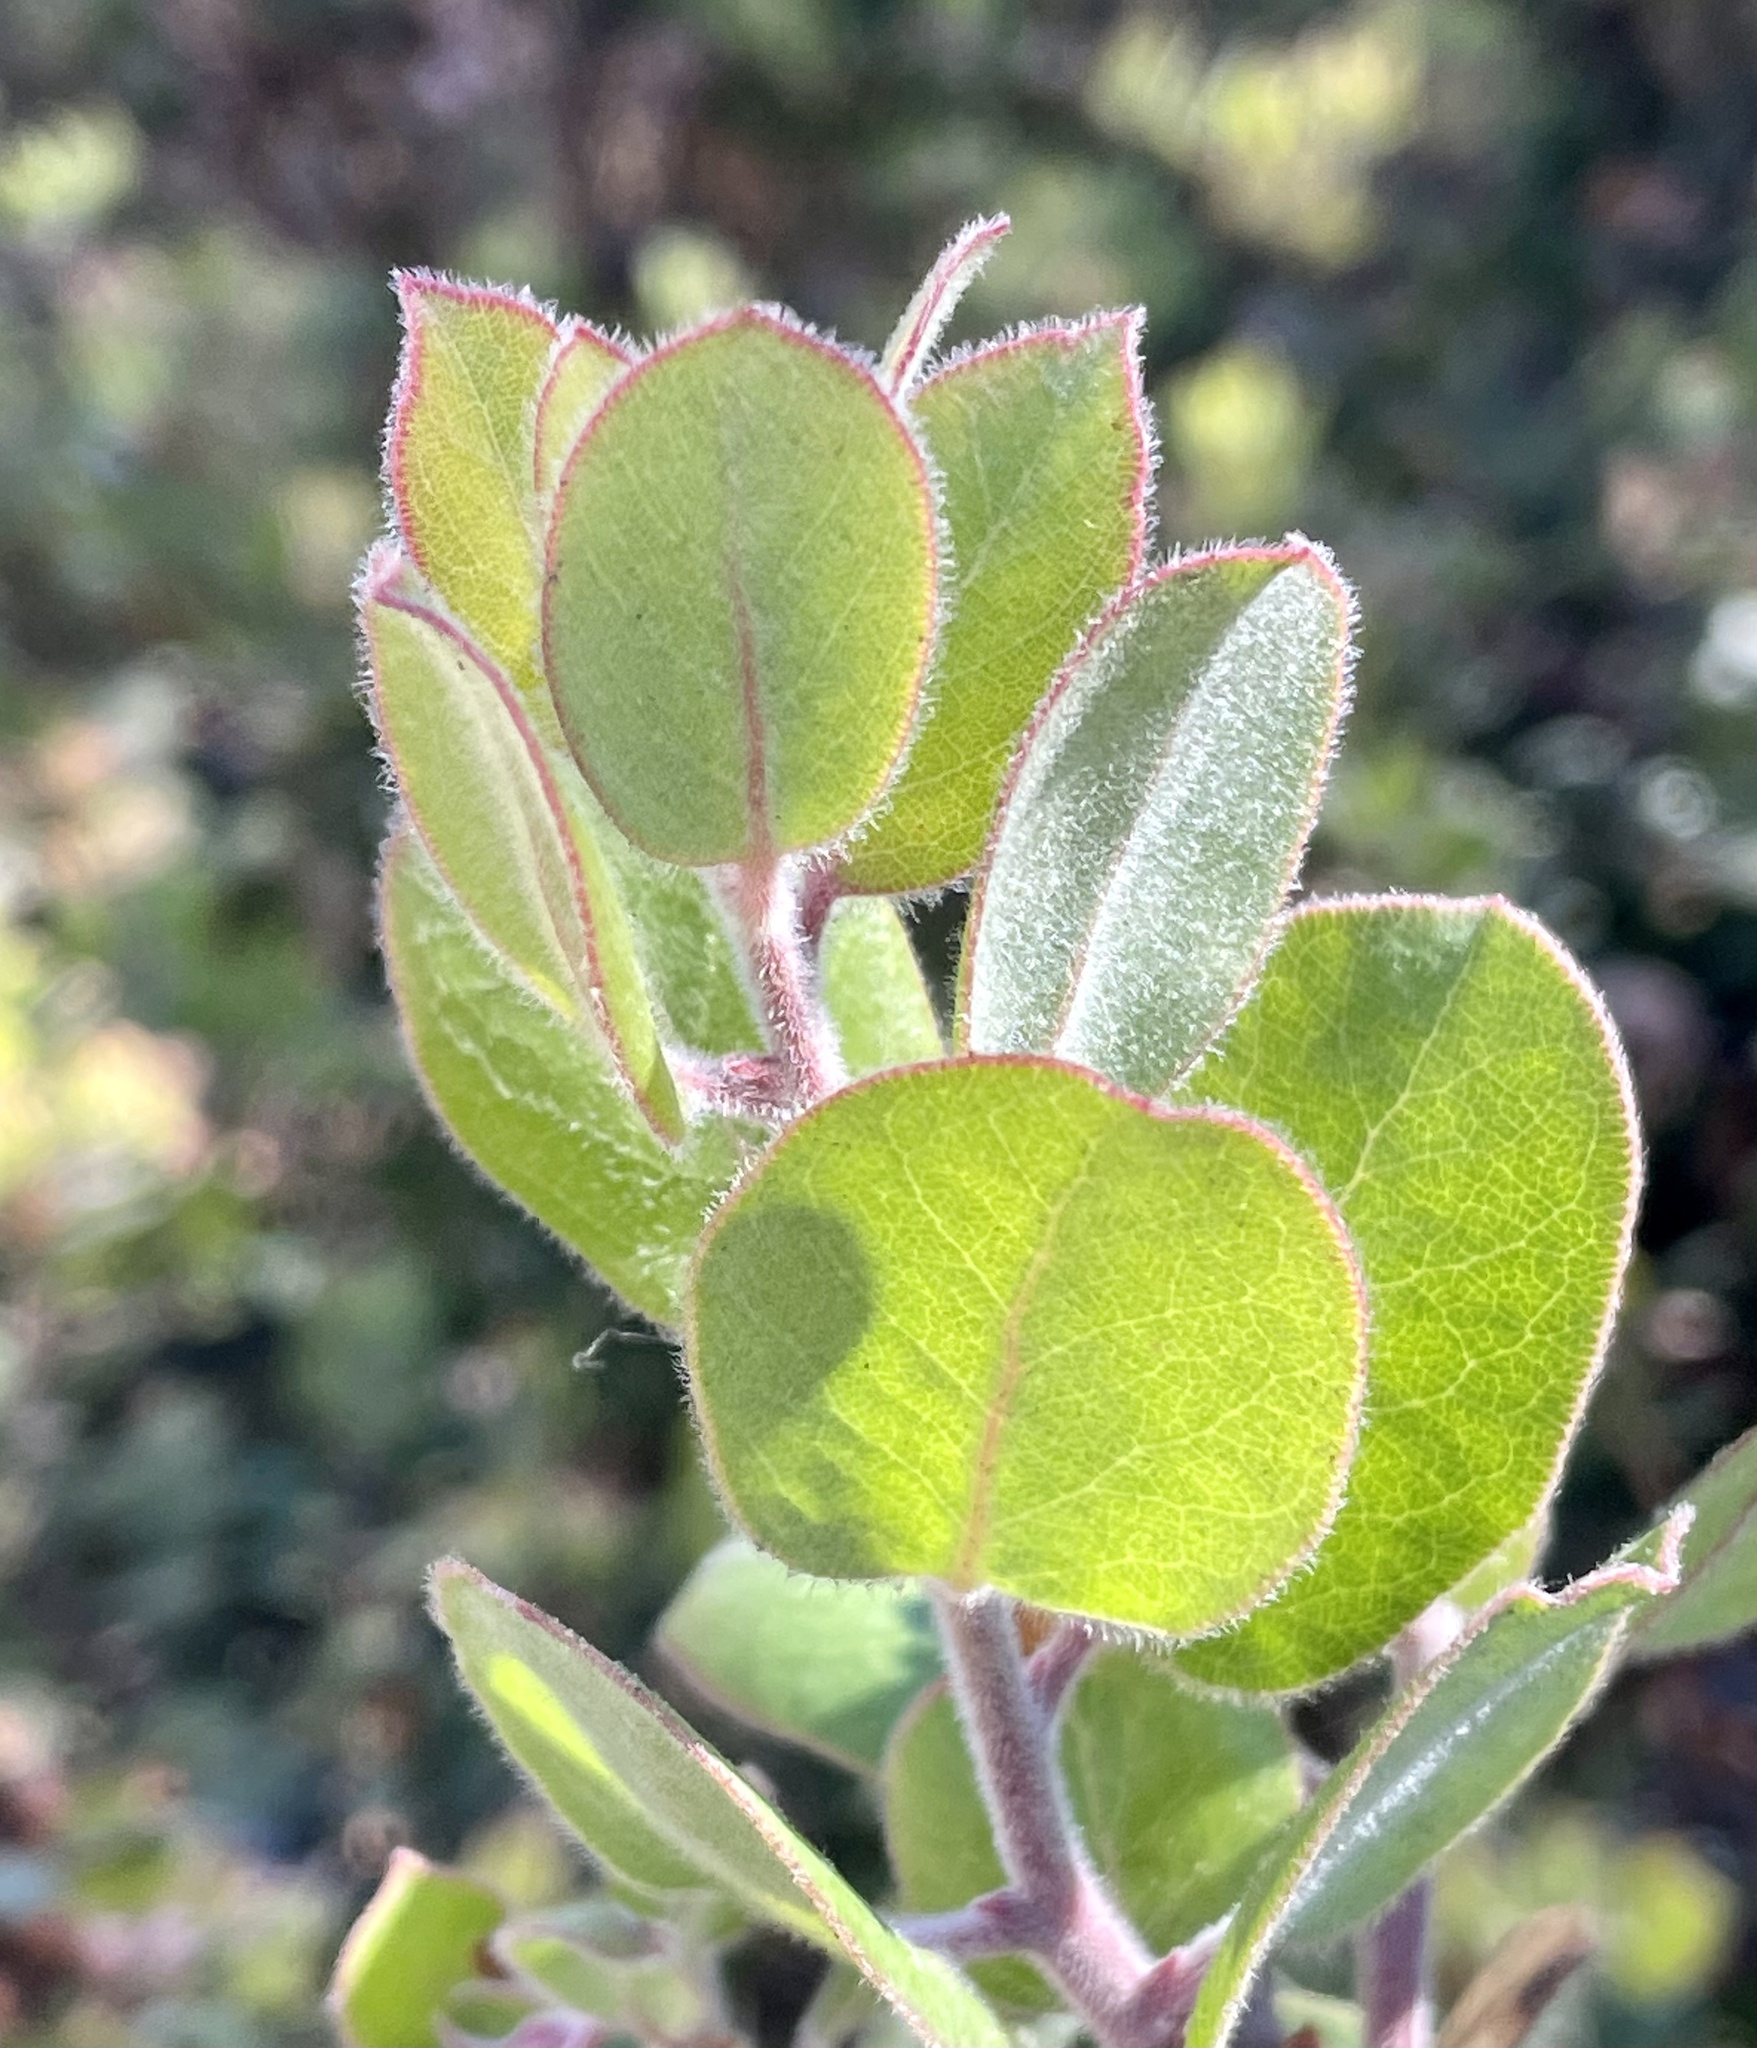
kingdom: Plantae
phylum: Tracheophyta
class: Magnoliopsida
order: Ericales
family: Ericaceae
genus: Arctostaphylos
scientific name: Arctostaphylos tomentosa
